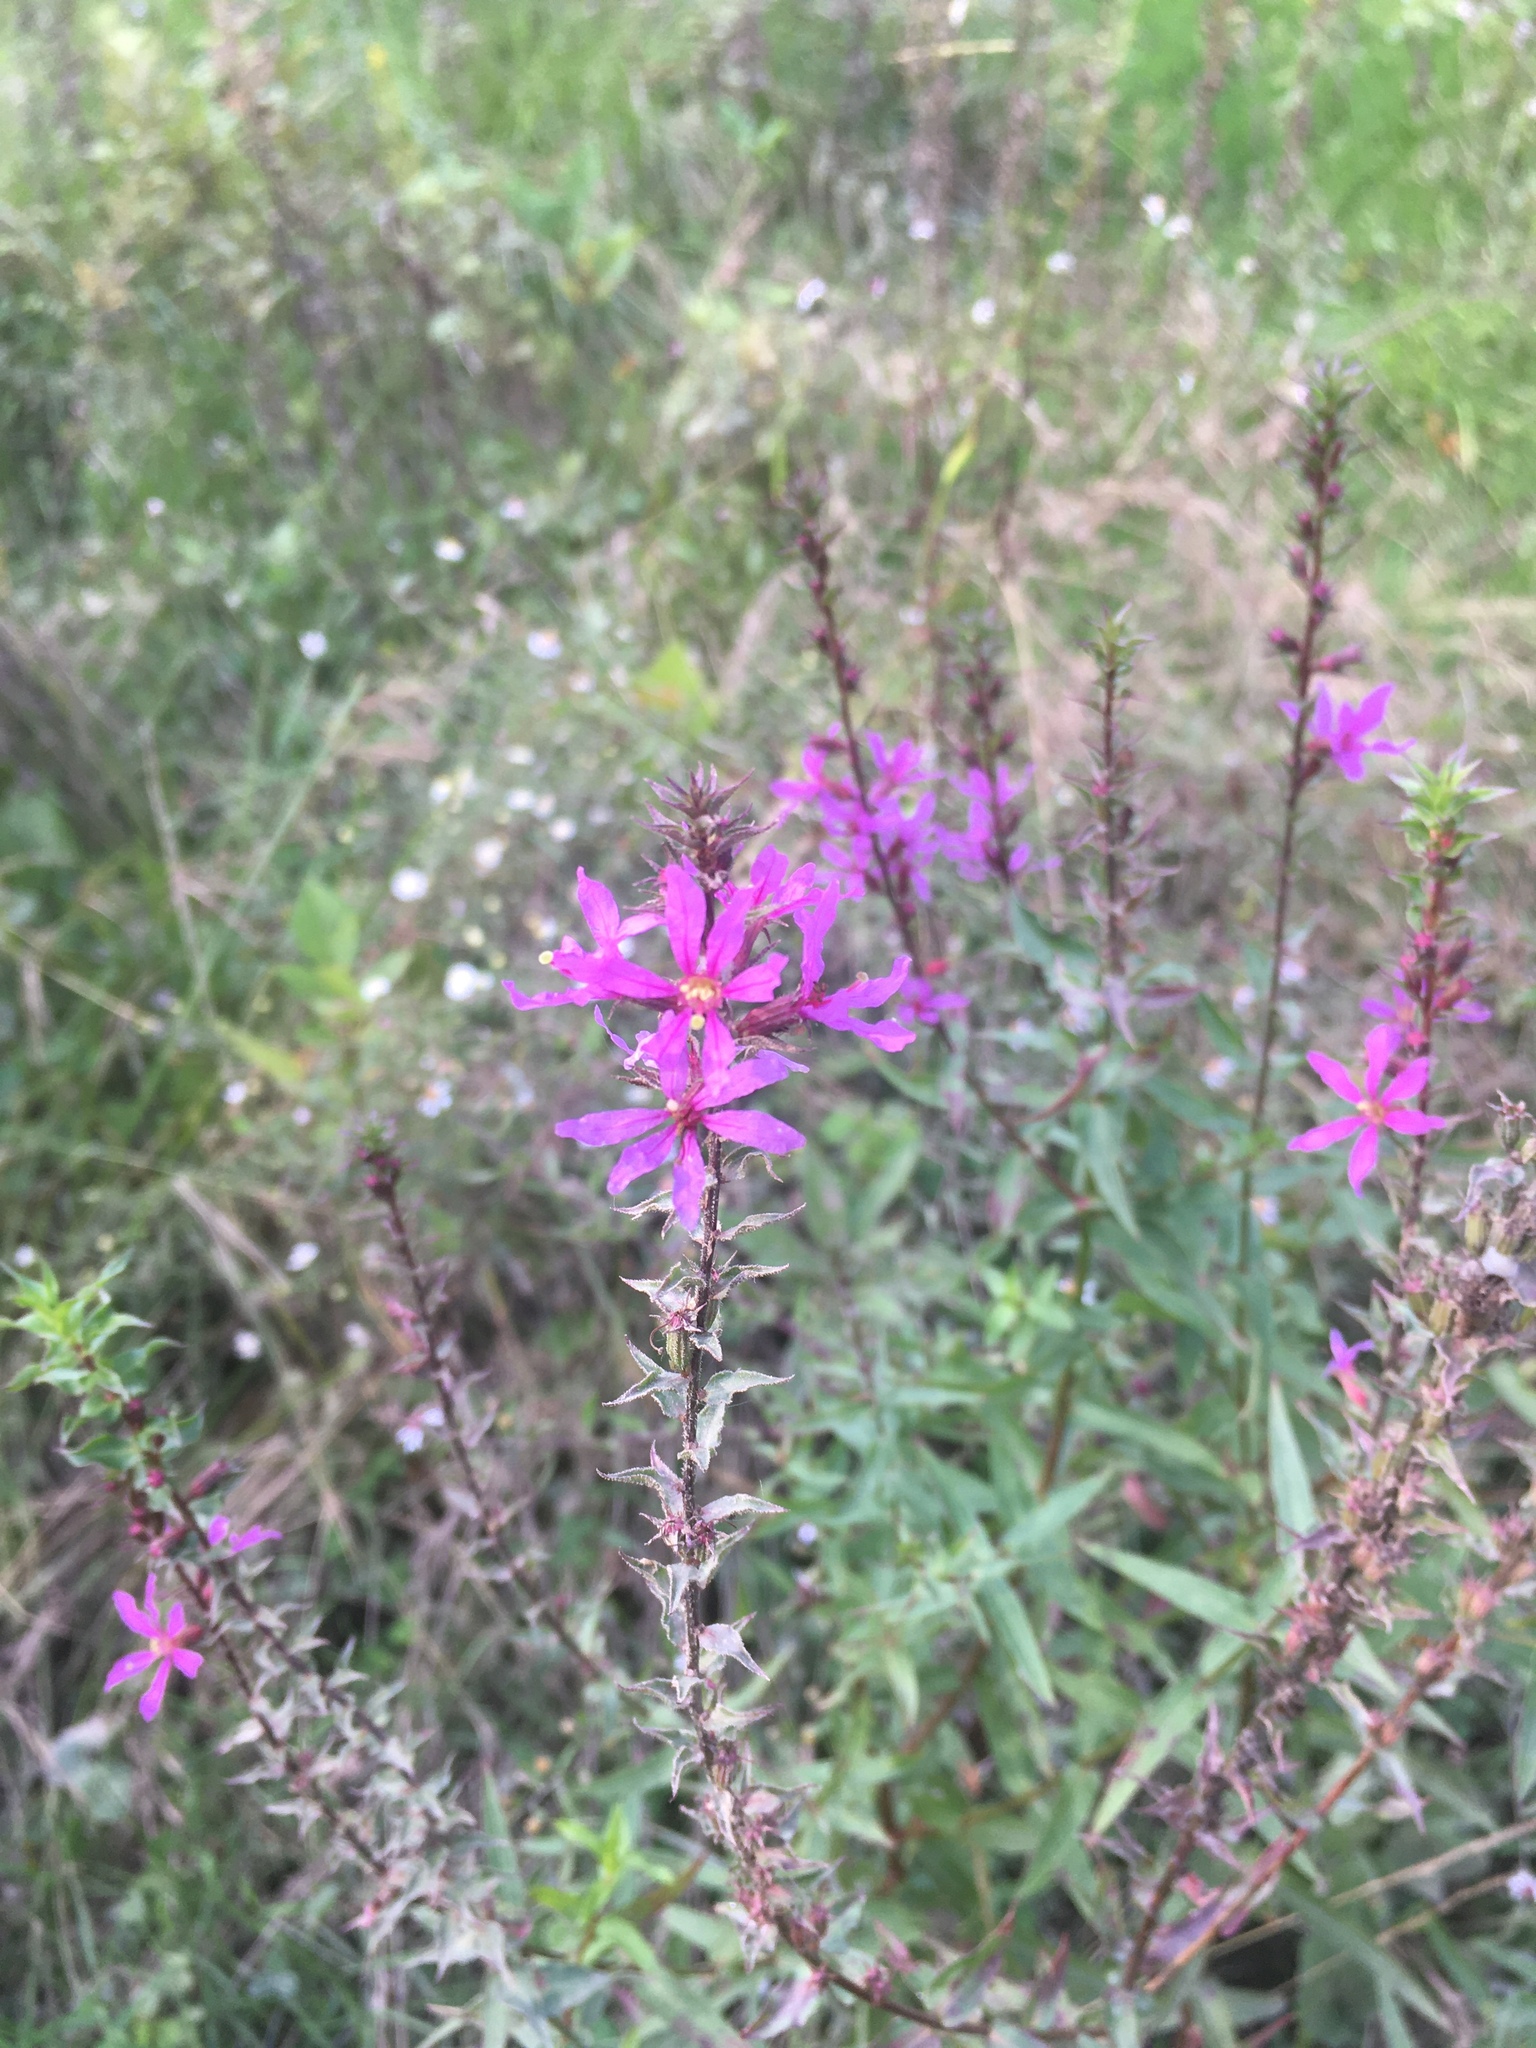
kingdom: Plantae
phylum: Tracheophyta
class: Magnoliopsida
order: Myrtales
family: Lythraceae
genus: Lythrum
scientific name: Lythrum salicaria
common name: Purple loosestrife
